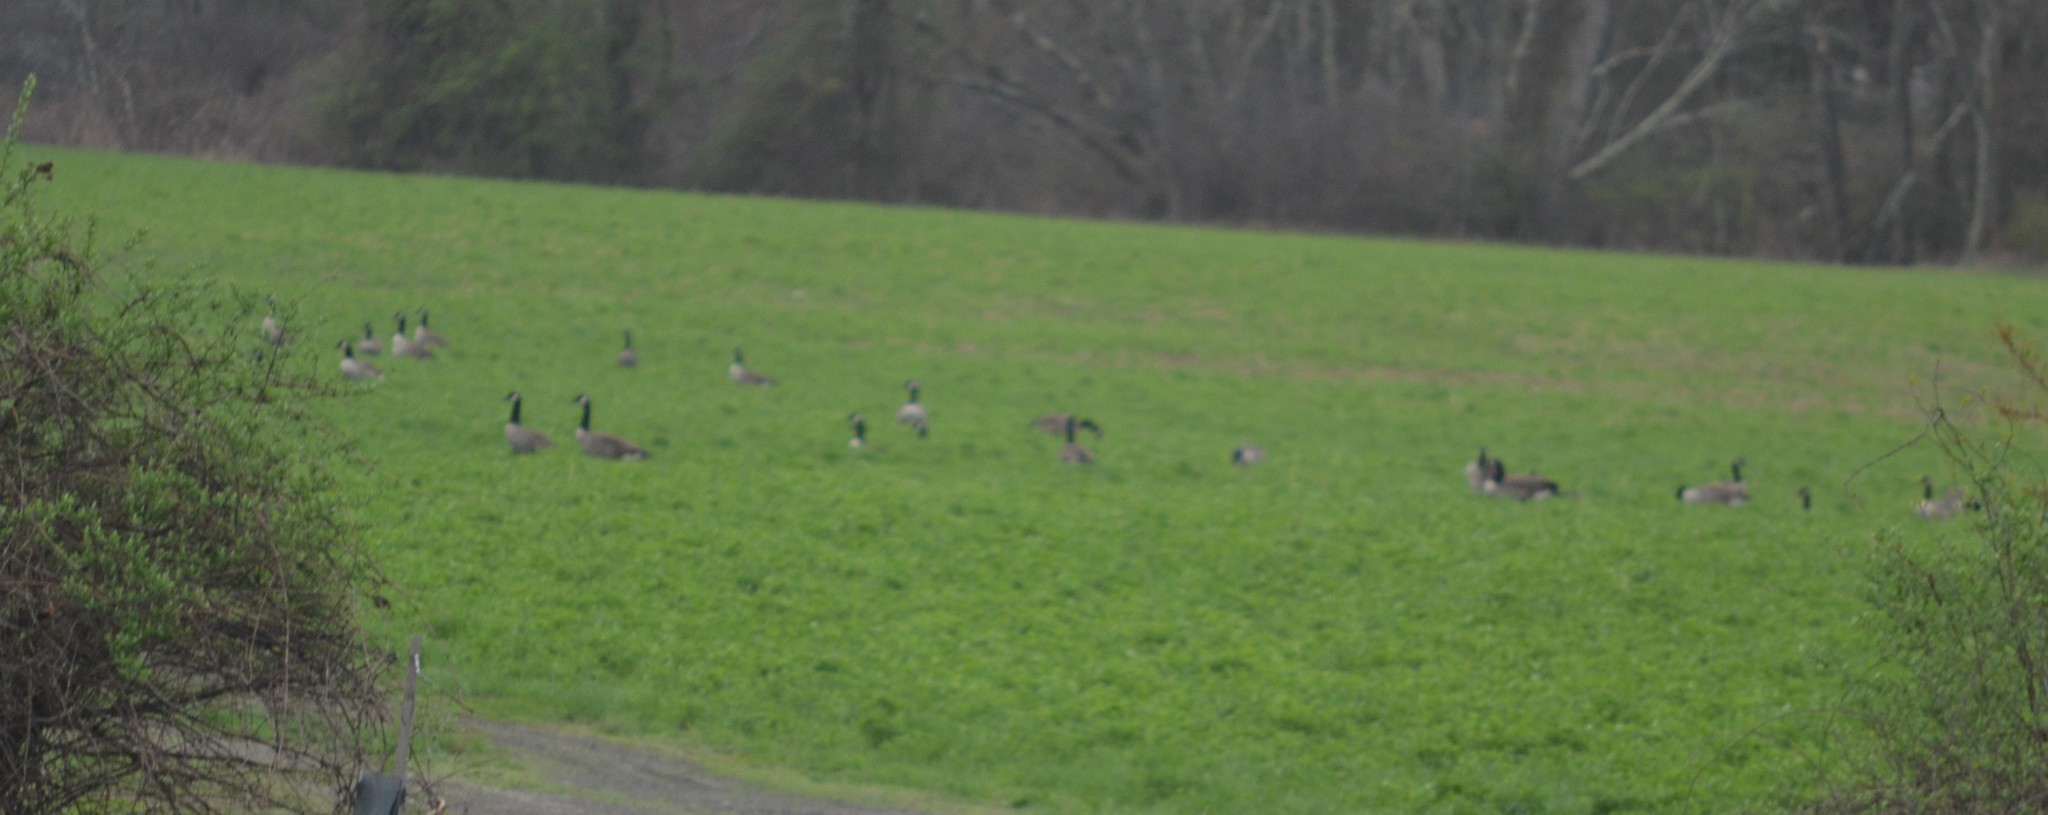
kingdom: Animalia
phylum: Chordata
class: Aves
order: Anseriformes
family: Anatidae
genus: Branta
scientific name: Branta canadensis
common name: Canada goose
